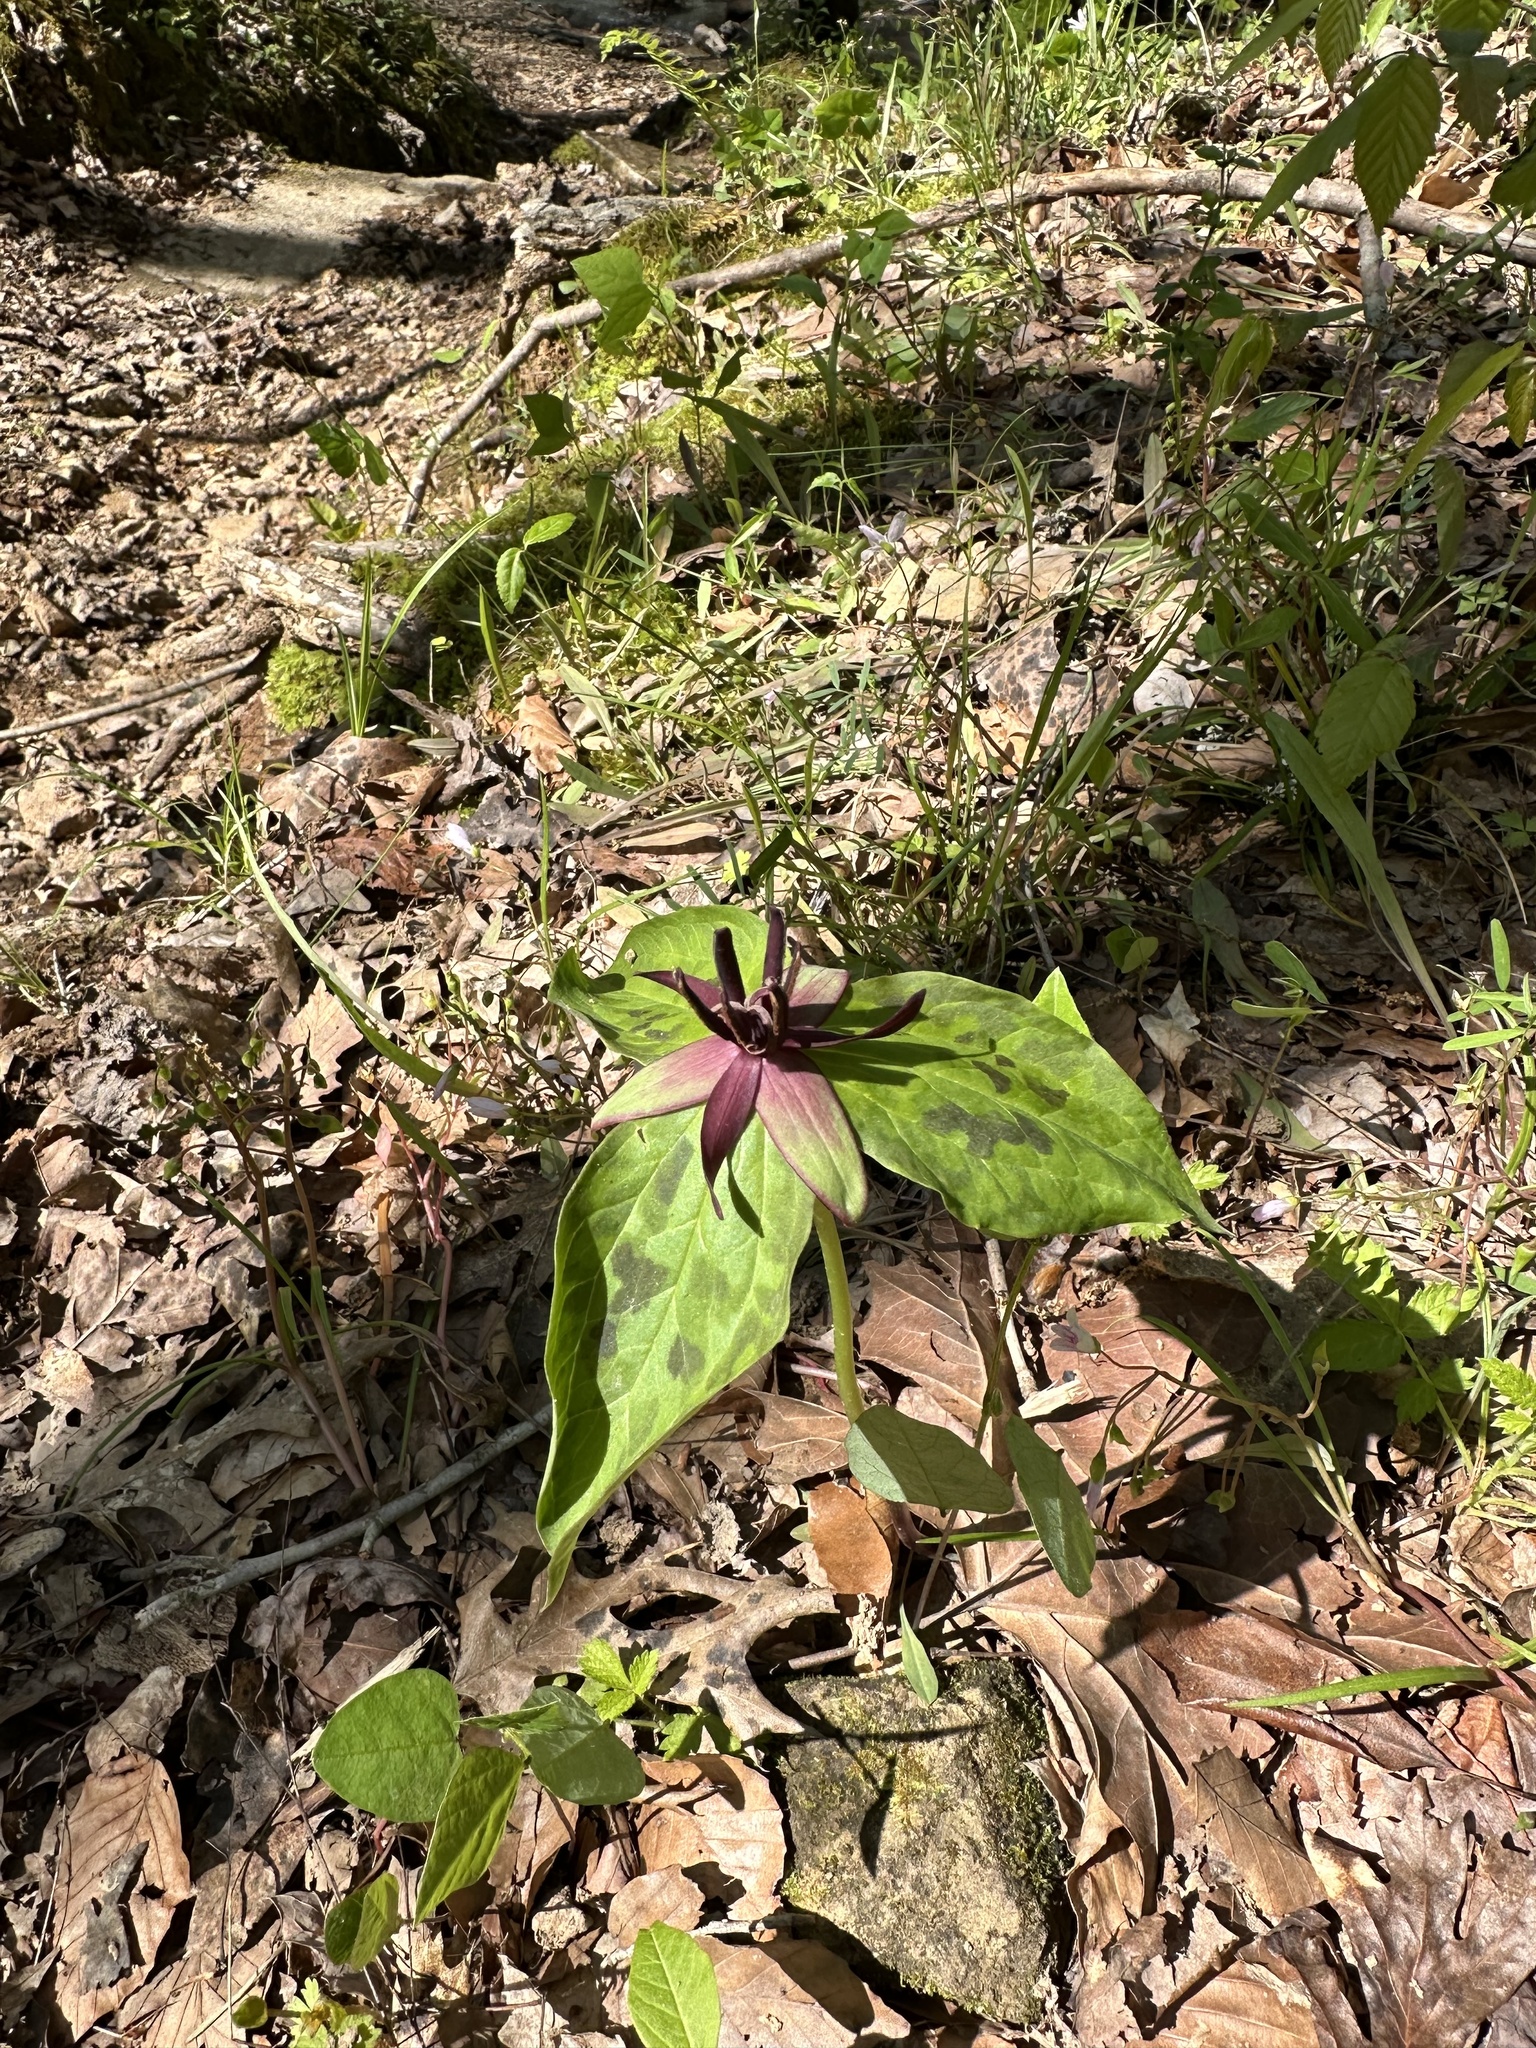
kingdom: Plantae
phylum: Tracheophyta
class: Liliopsida
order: Liliales
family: Melanthiaceae
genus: Trillium
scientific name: Trillium stamineum
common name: Blue ridge wakerobin
